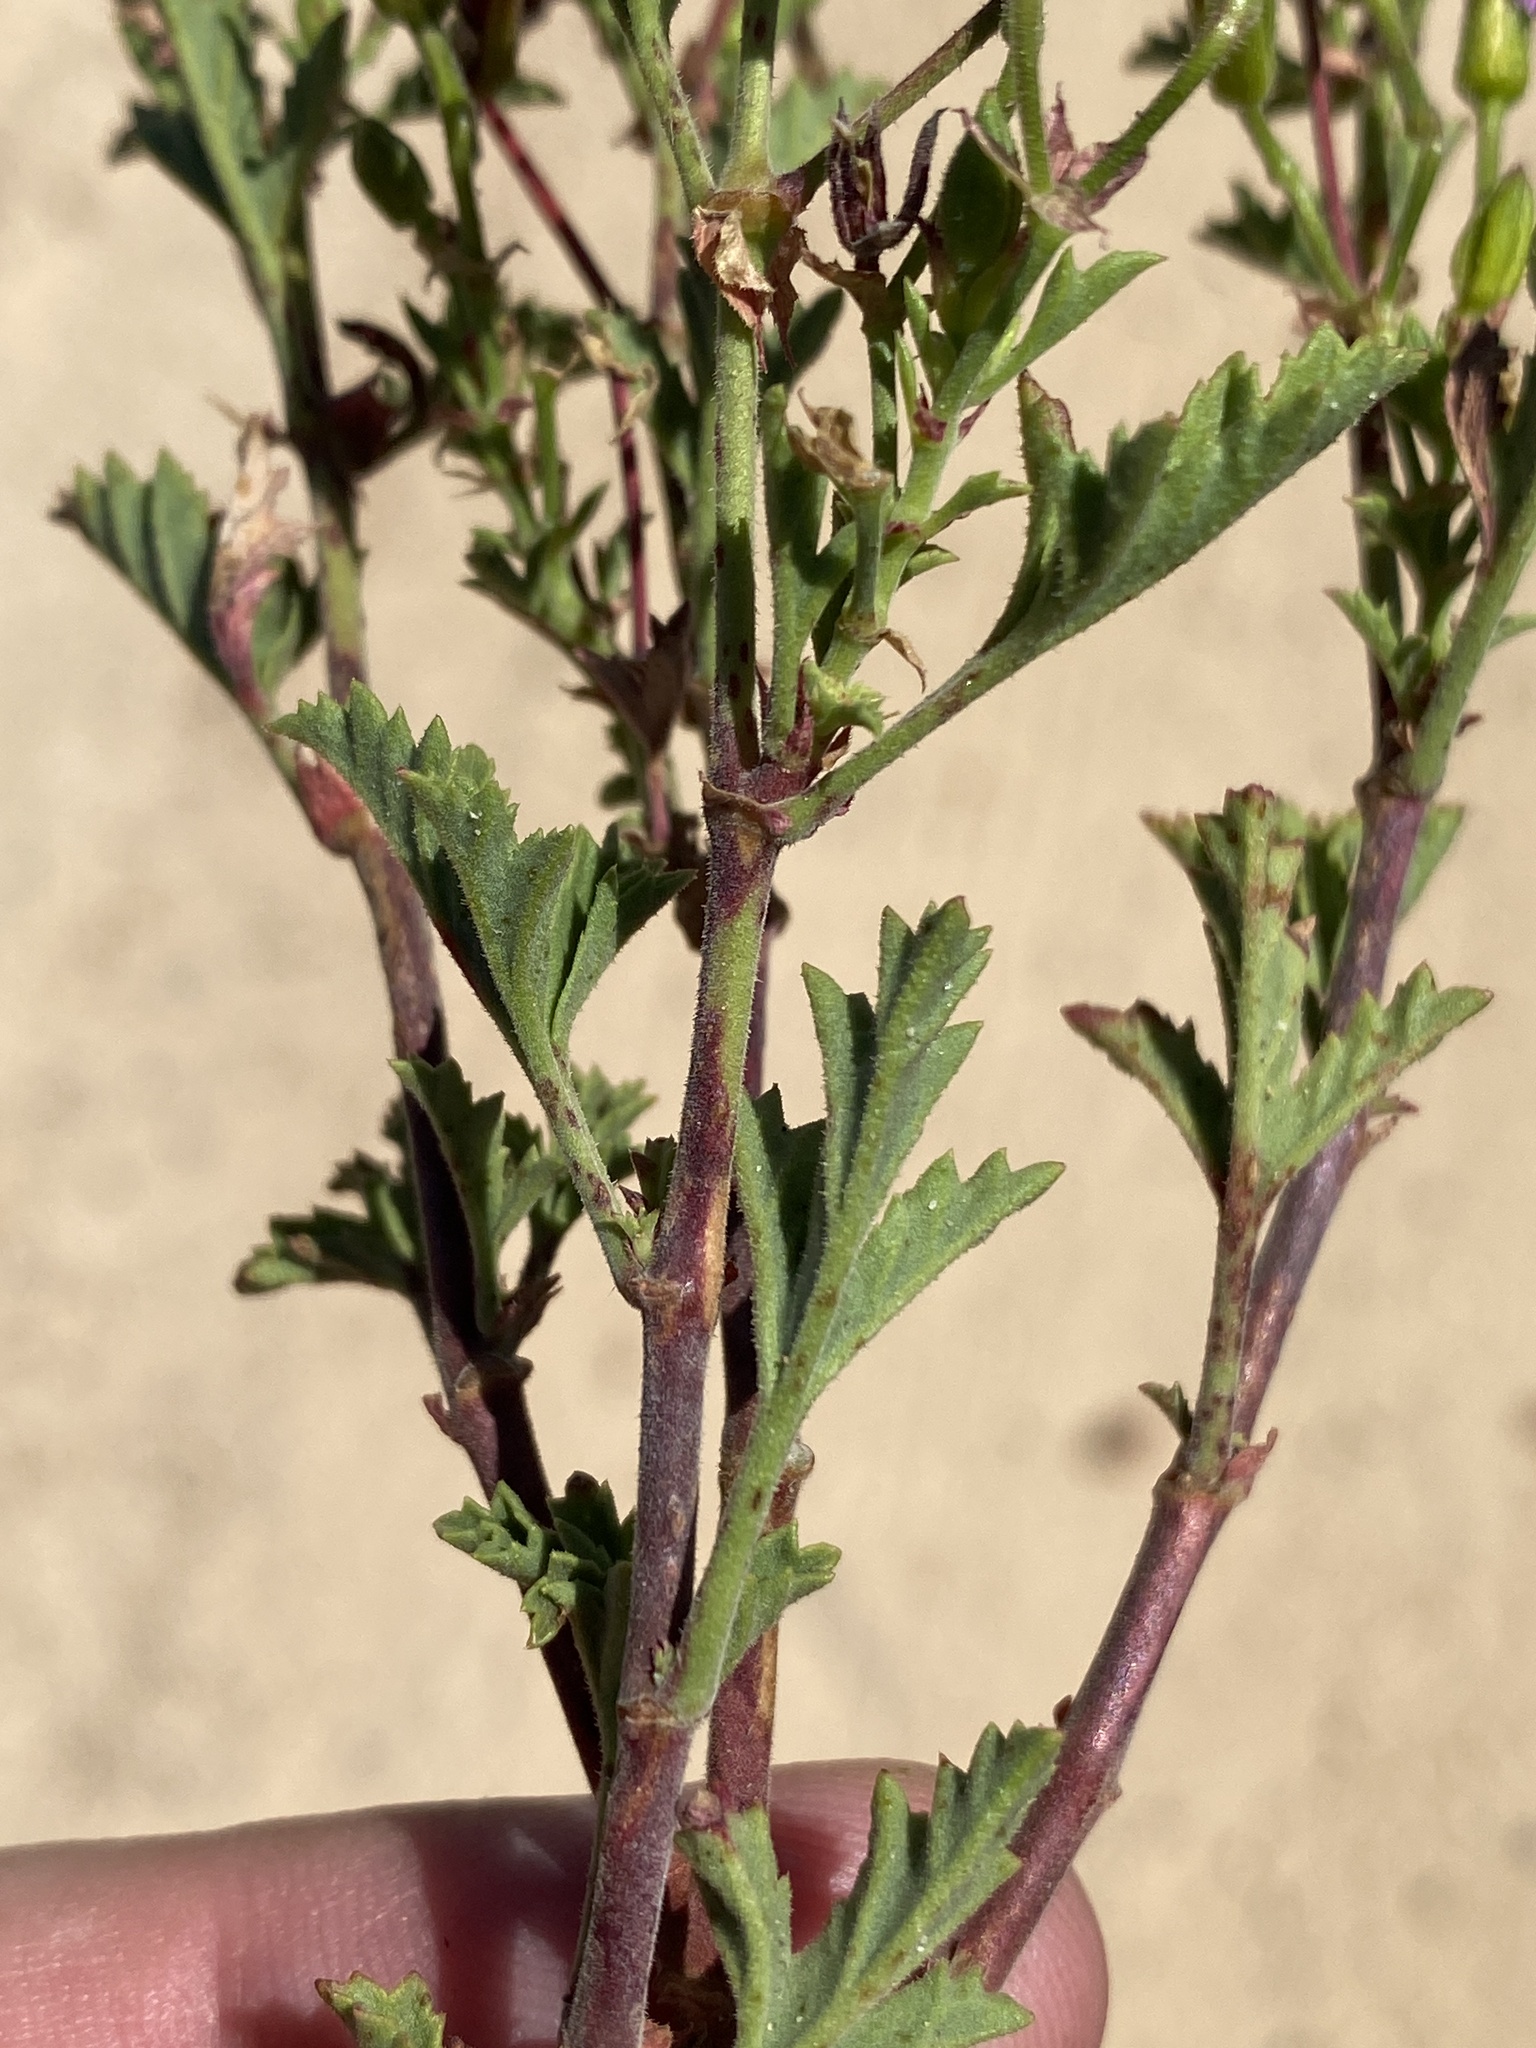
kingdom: Plantae
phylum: Tracheophyta
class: Magnoliopsida
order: Geraniales
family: Geraniaceae
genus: Pelargonium
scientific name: Pelargonium scabrum
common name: Apricot geranium
